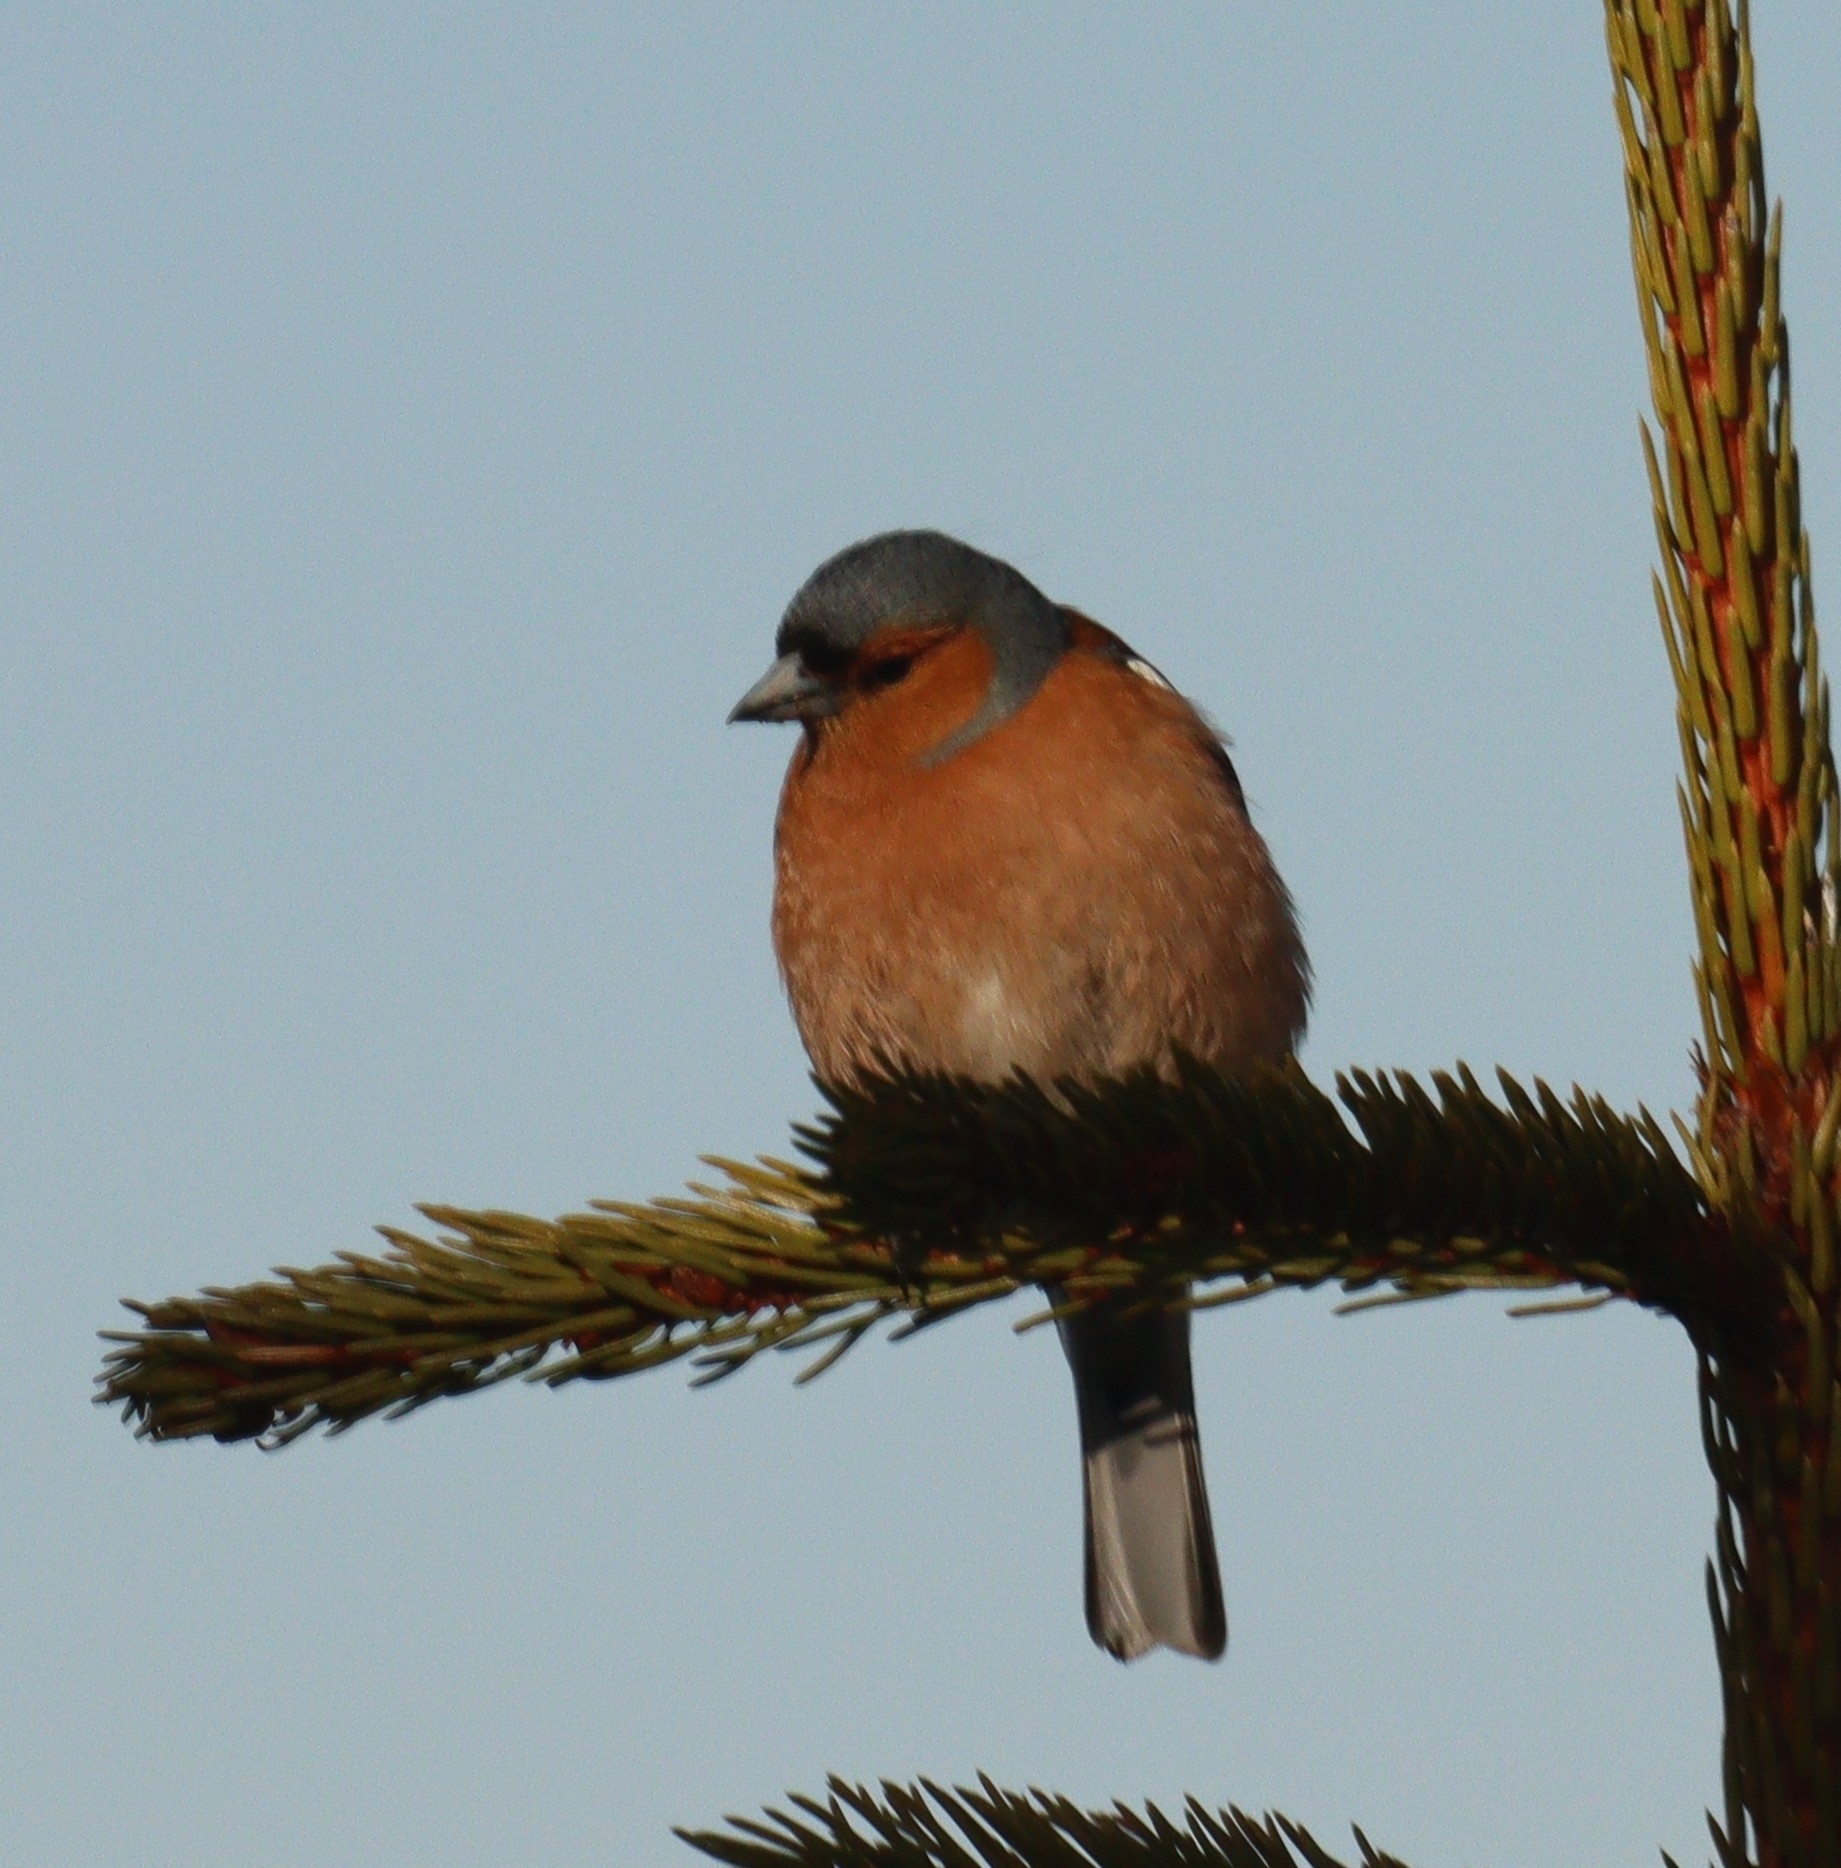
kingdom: Animalia
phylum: Chordata
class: Aves
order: Passeriformes
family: Fringillidae
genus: Fringilla
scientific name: Fringilla coelebs
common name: Common chaffinch
